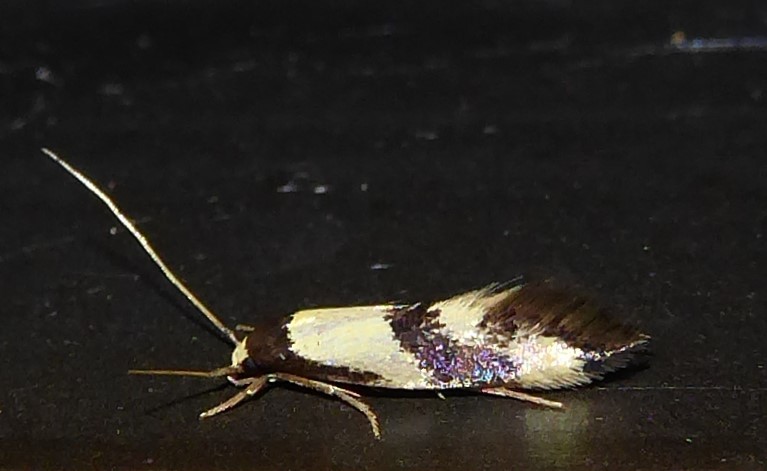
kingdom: Animalia
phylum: Arthropoda
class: Insecta
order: Lepidoptera
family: Tineidae
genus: Opogona
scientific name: Opogona comptella
